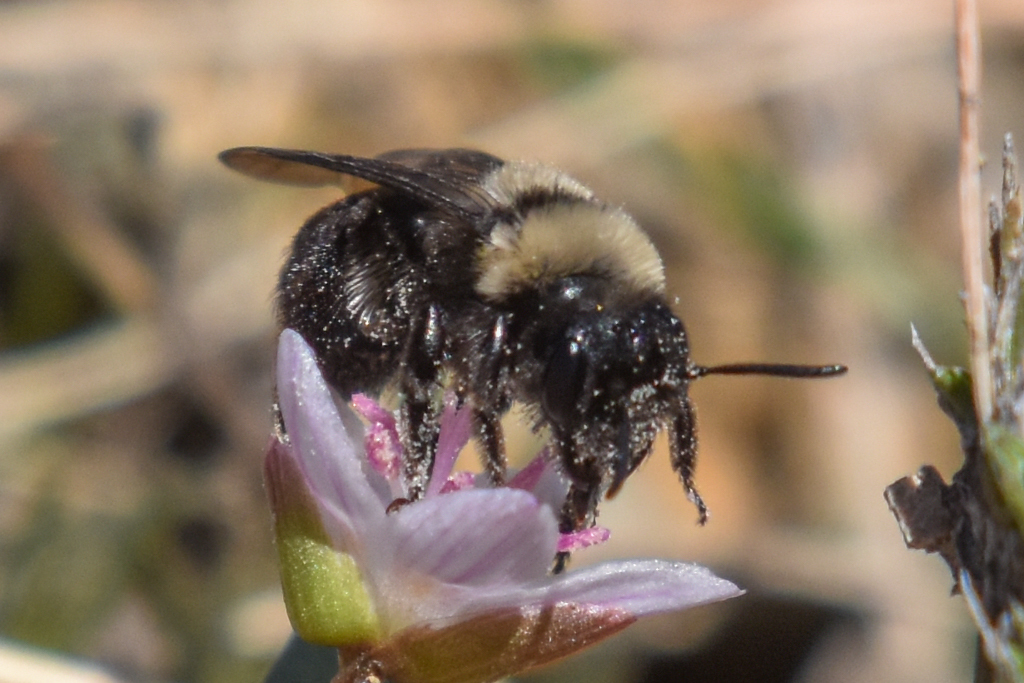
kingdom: Animalia
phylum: Arthropoda
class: Insecta
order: Hymenoptera
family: Andrenidae
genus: Andrena
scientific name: Andrena transnigra
